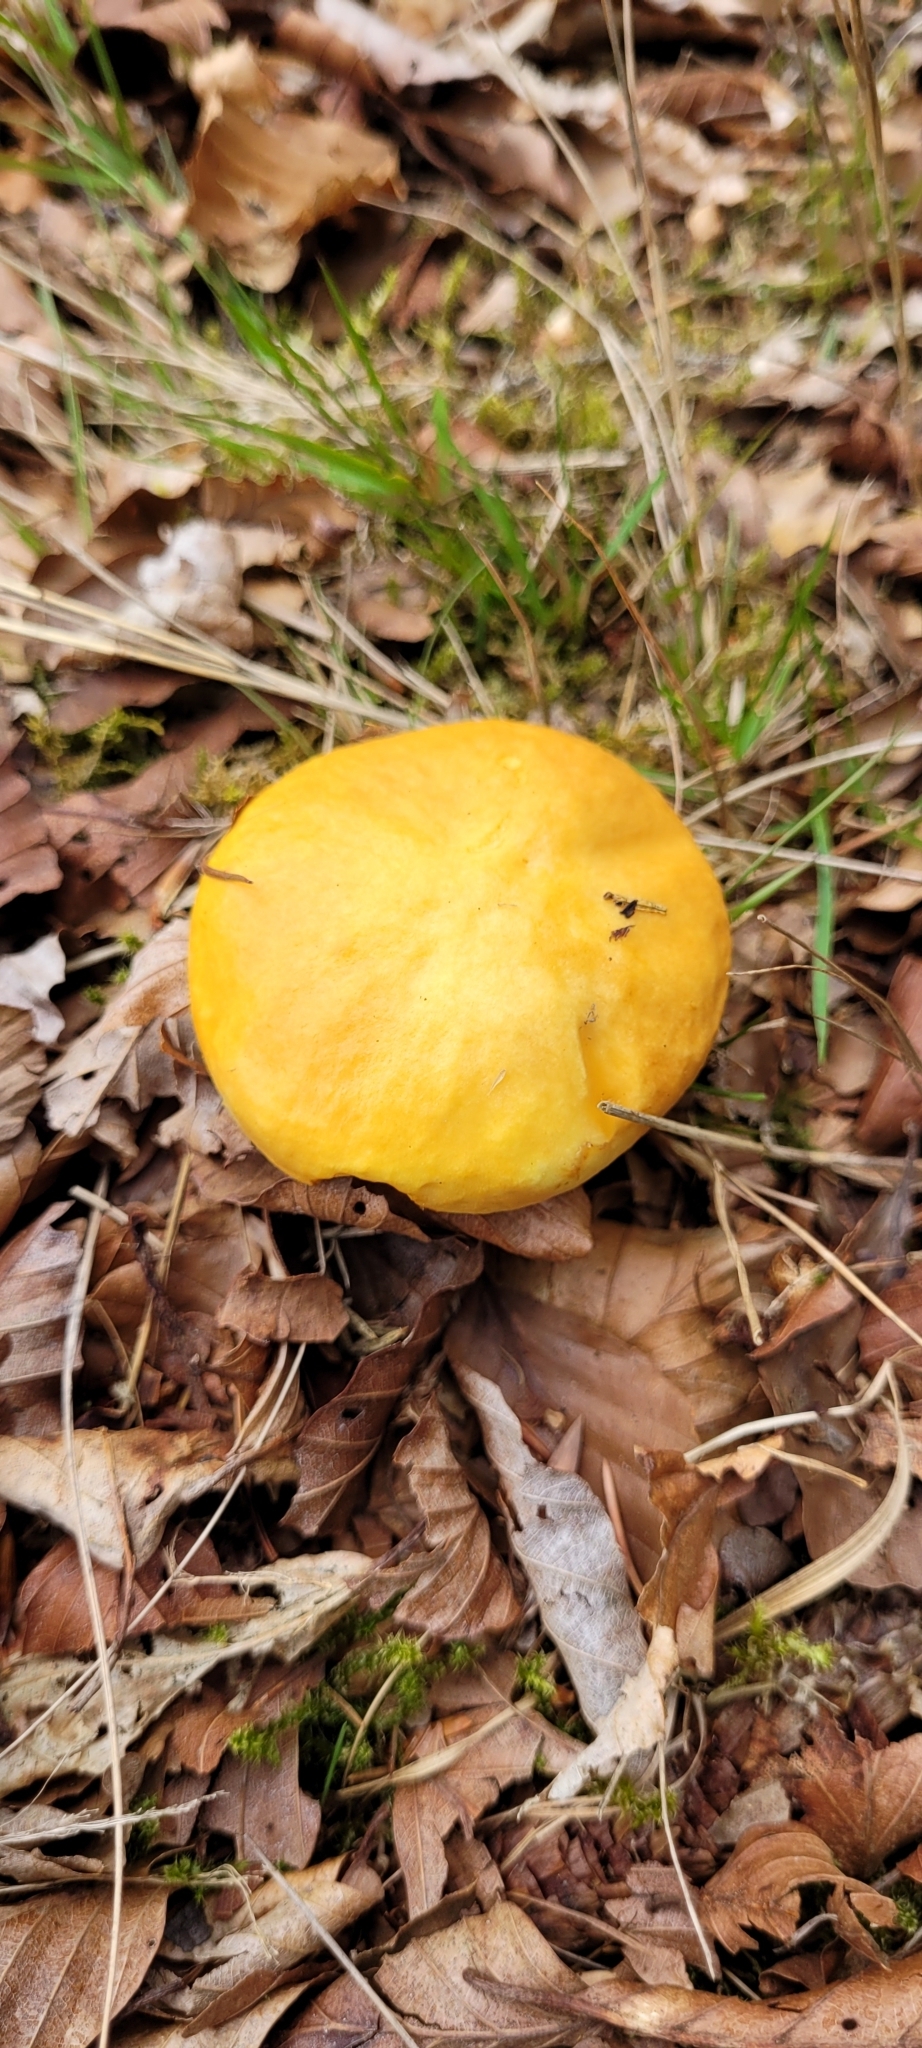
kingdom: Fungi
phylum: Basidiomycota
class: Agaricomycetes
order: Boletales
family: Suillaceae
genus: Suillus
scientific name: Suillus grevillei
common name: Larch bolete
